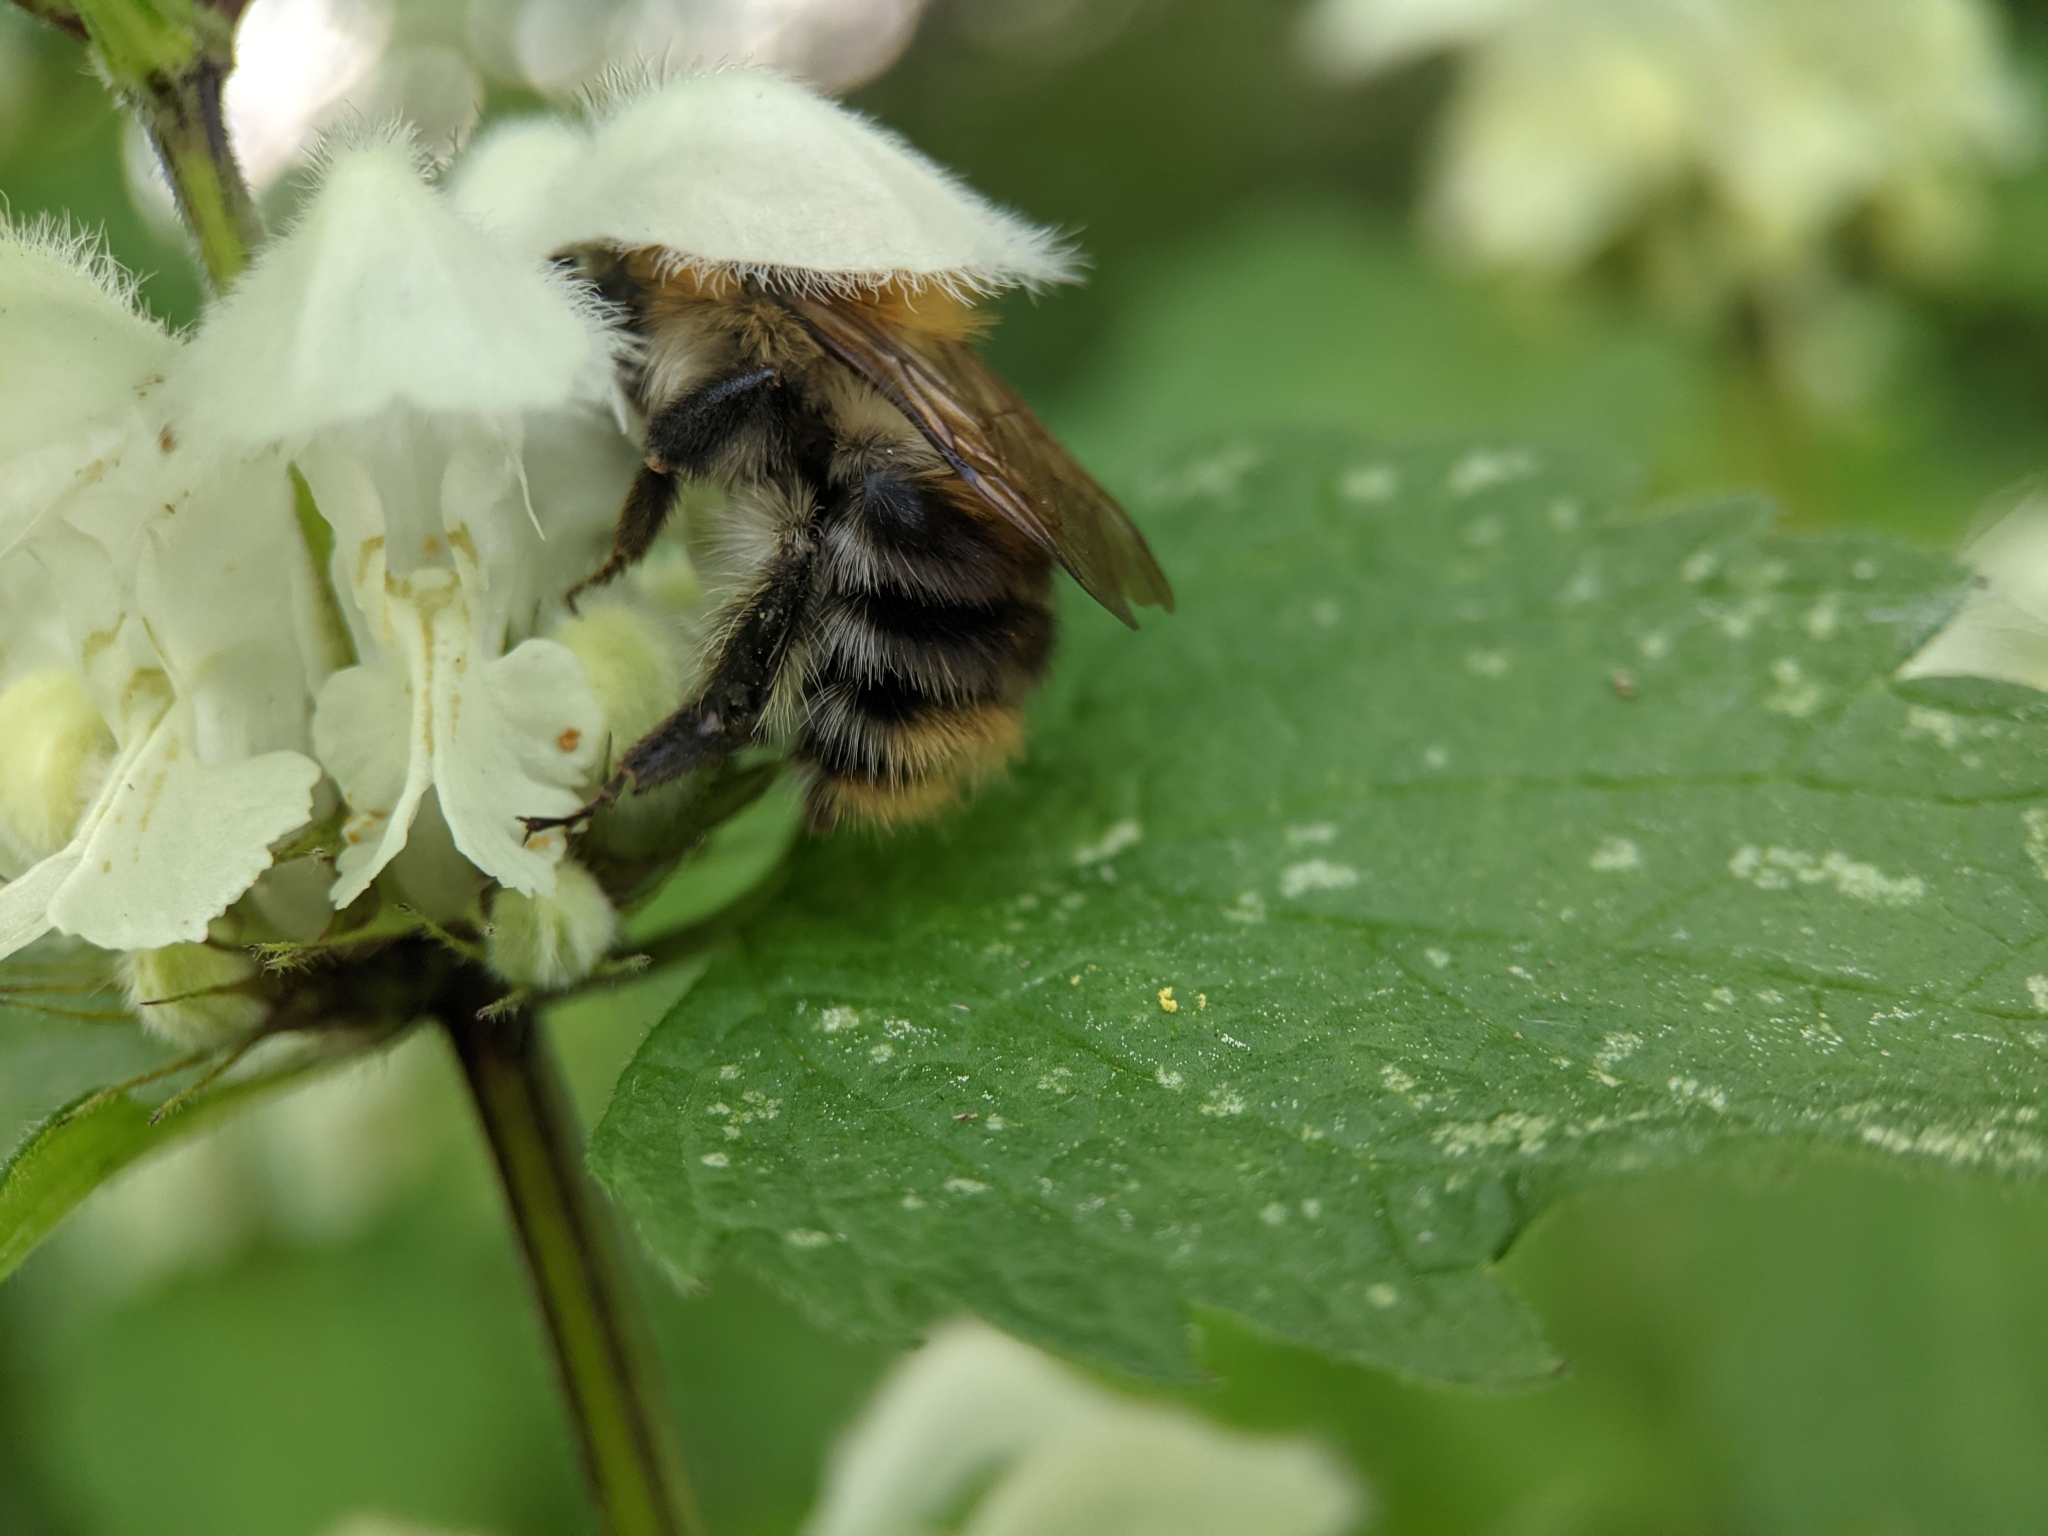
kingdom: Animalia
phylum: Arthropoda
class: Insecta
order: Hymenoptera
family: Apidae
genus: Bombus
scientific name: Bombus pascuorum
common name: Common carder bee
